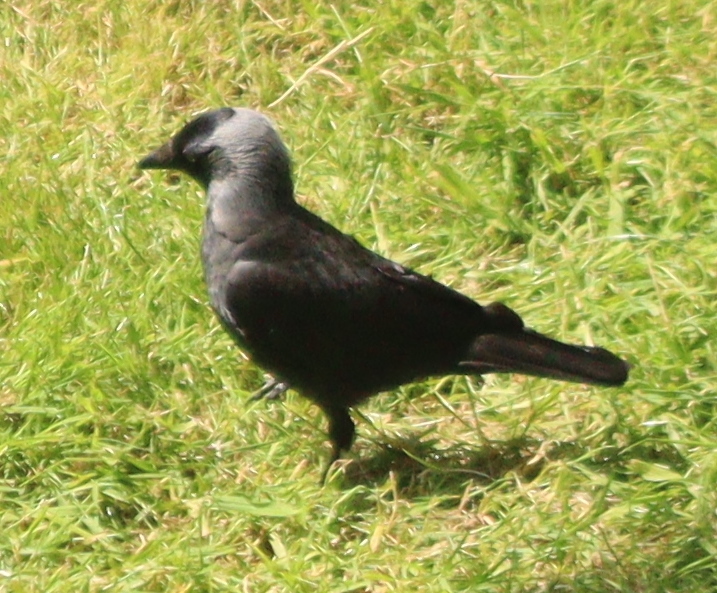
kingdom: Animalia
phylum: Chordata
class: Aves
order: Passeriformes
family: Corvidae
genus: Coloeus
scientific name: Coloeus monedula
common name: Western jackdaw
